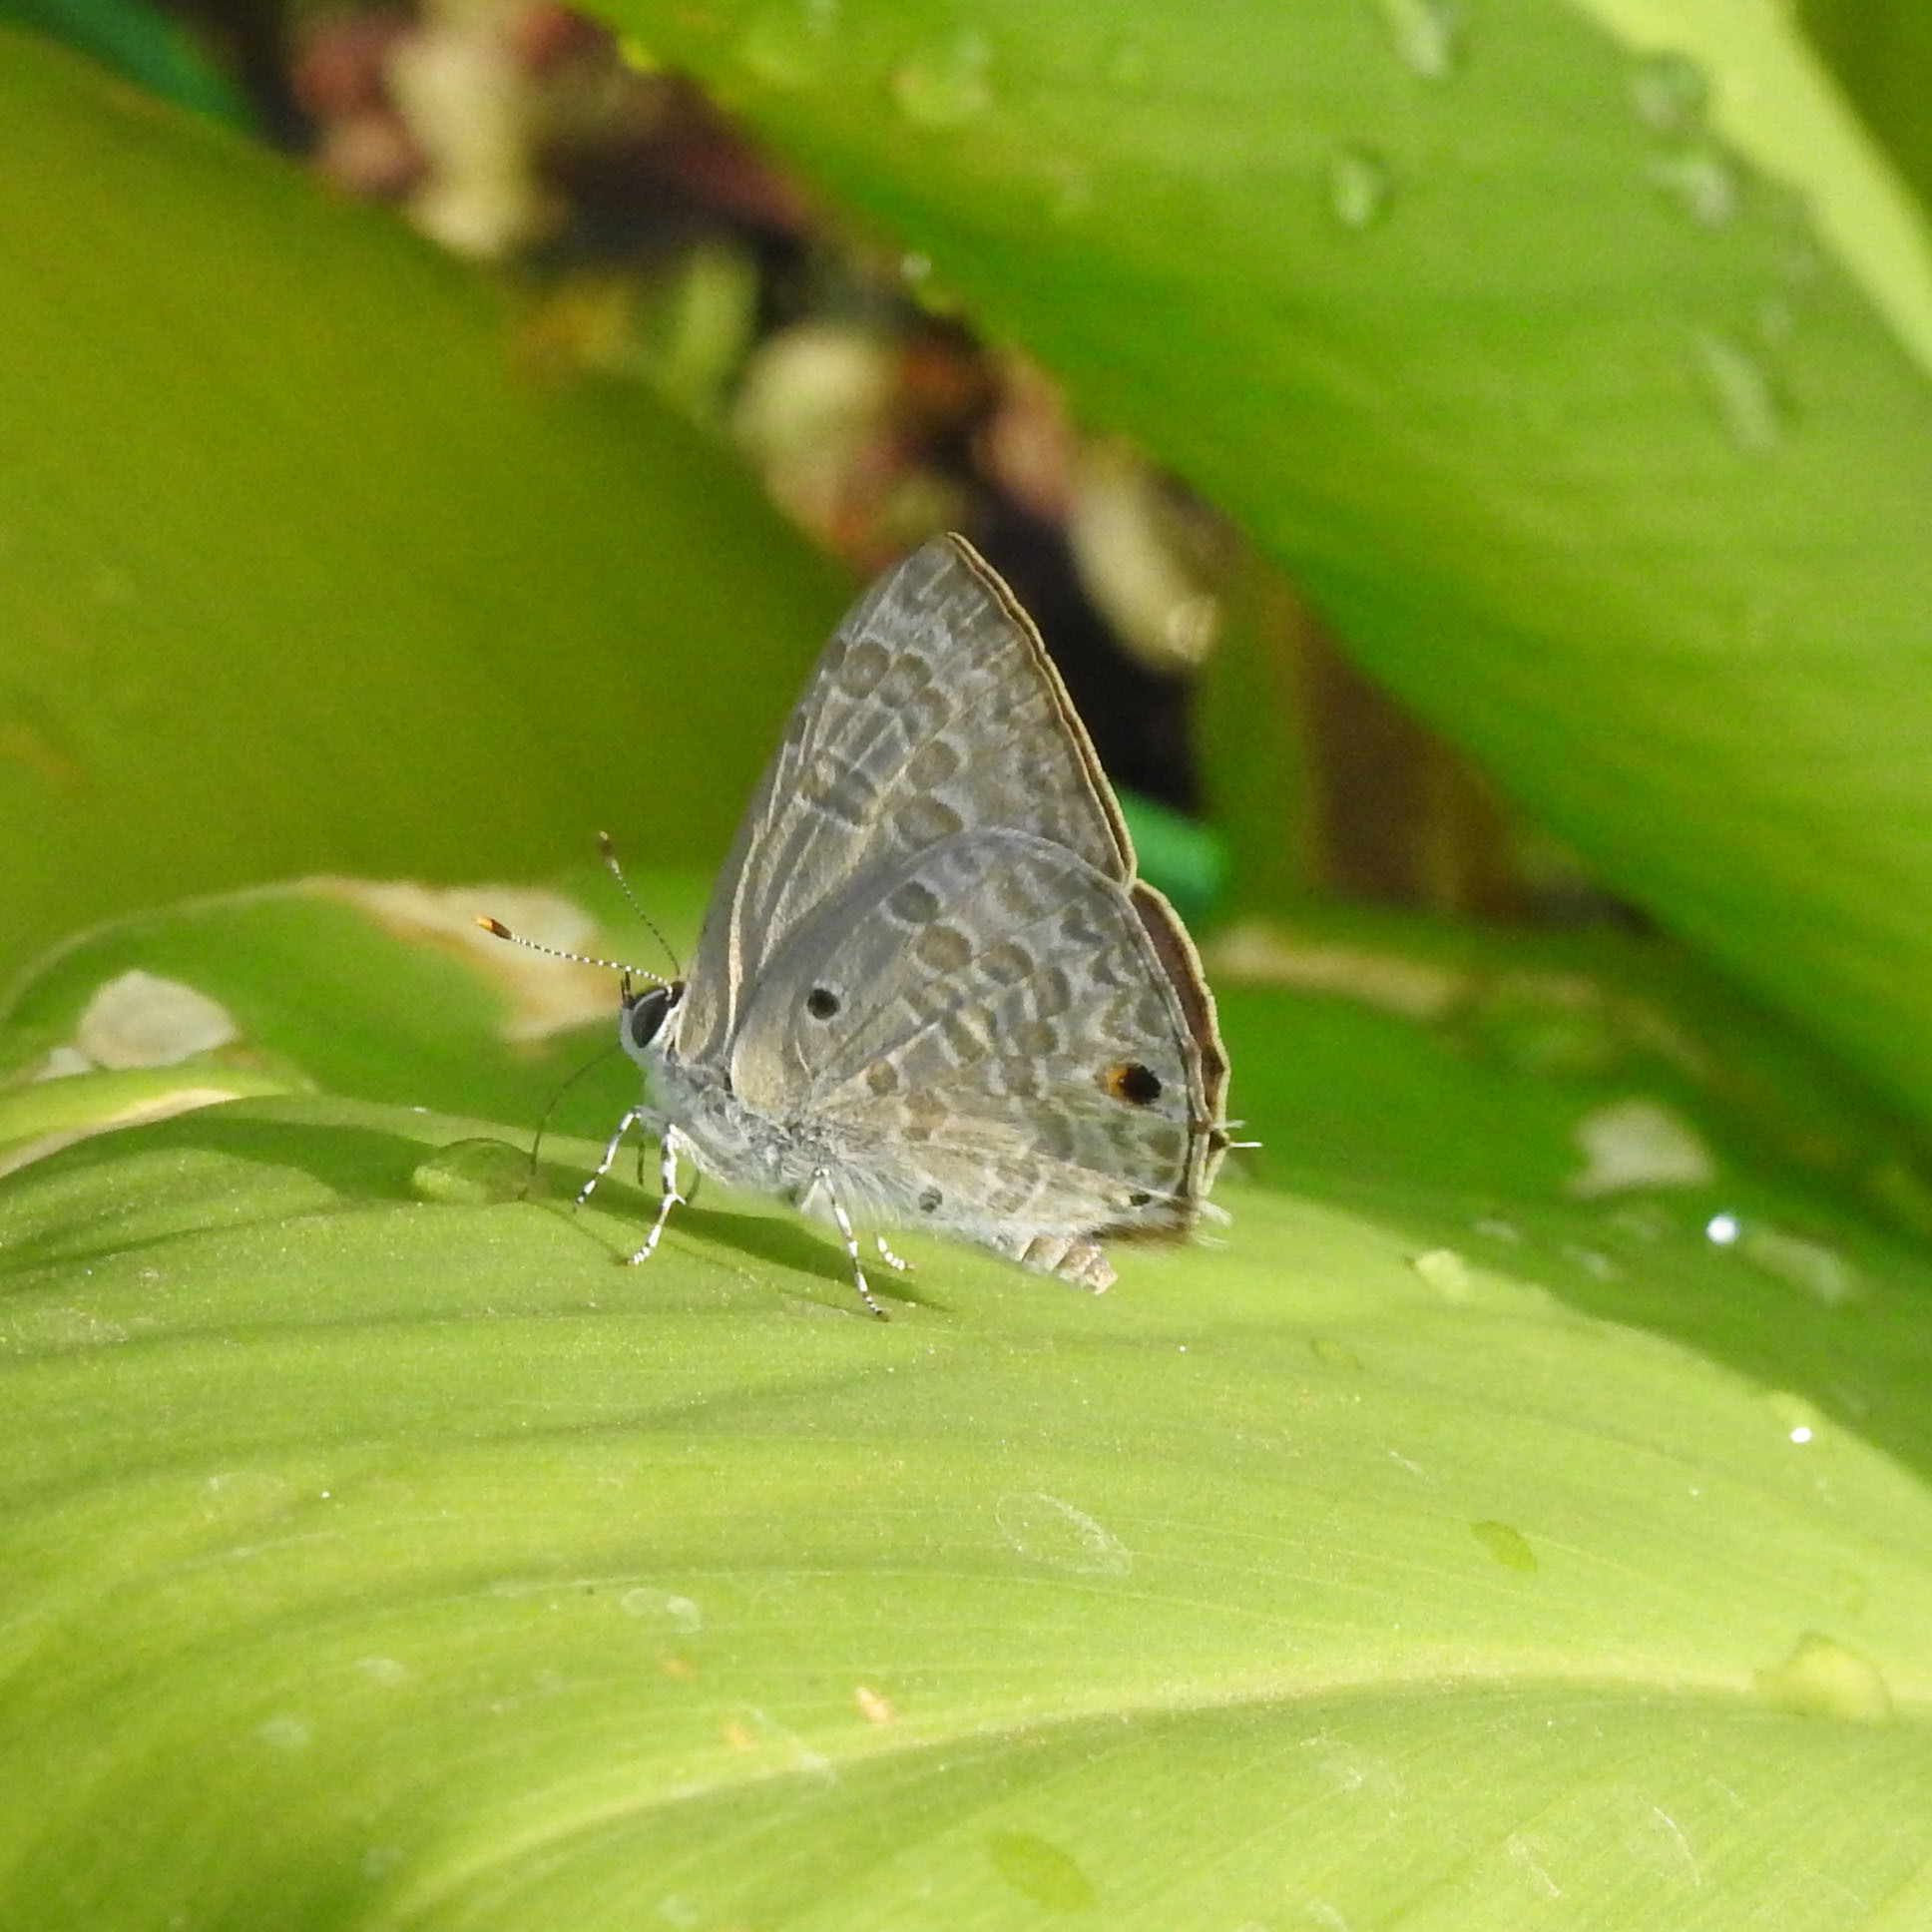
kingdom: Animalia
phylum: Arthropoda
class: Insecta
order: Lepidoptera
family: Lycaenidae
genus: Anthene
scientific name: Anthene lycaenina
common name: Pointed ciliate blue
